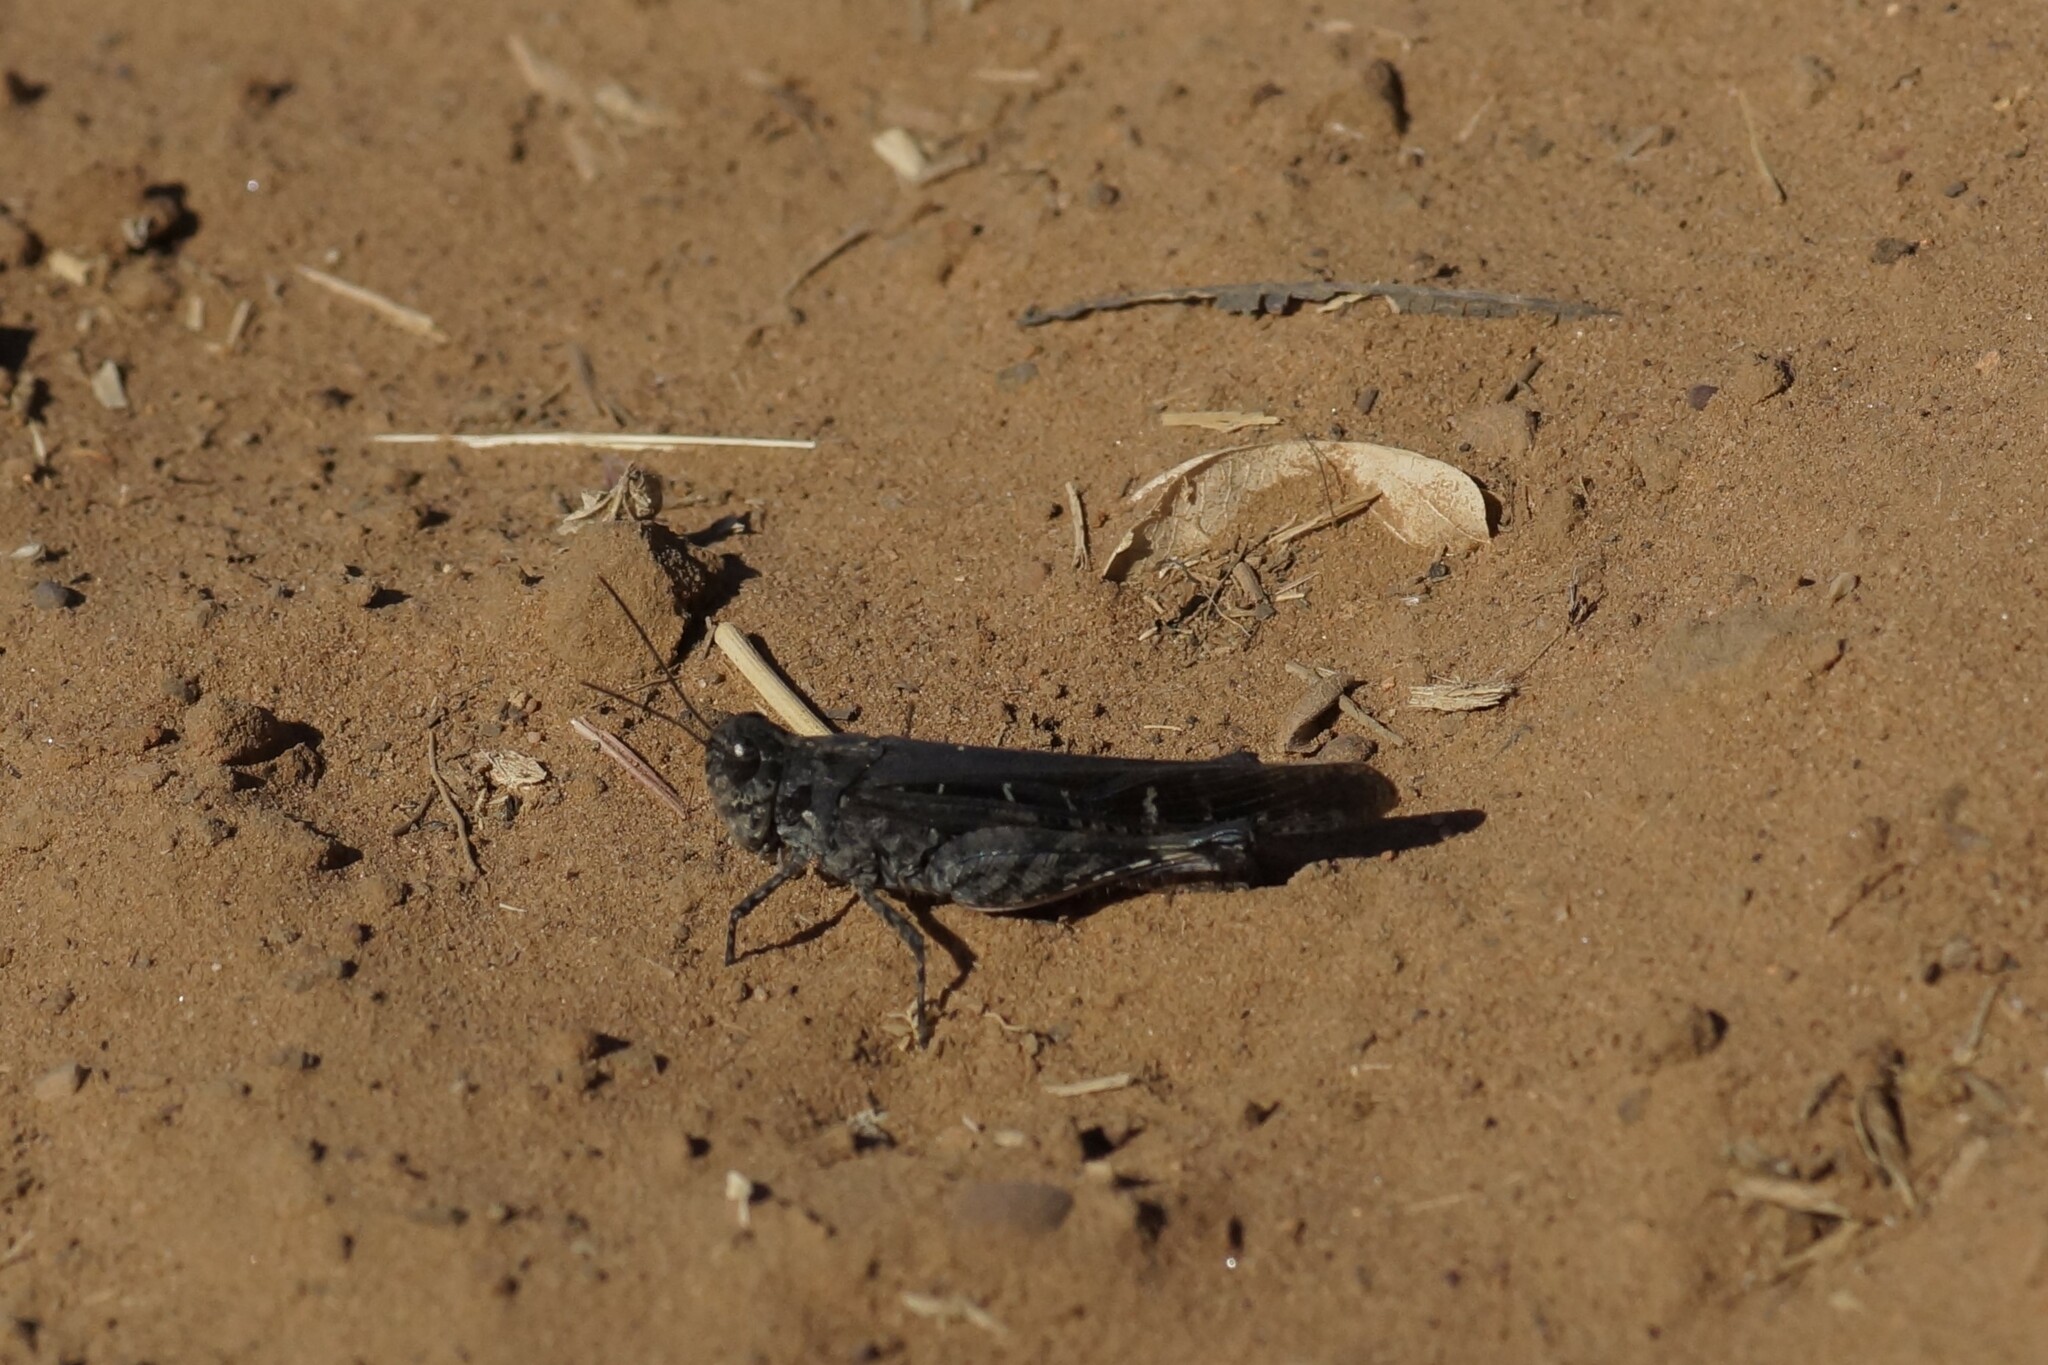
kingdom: Animalia
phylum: Arthropoda
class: Insecta
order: Orthoptera
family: Acrididae
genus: Heteropternis
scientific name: Heteropternis obscurella
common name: Long-legged bandwing
